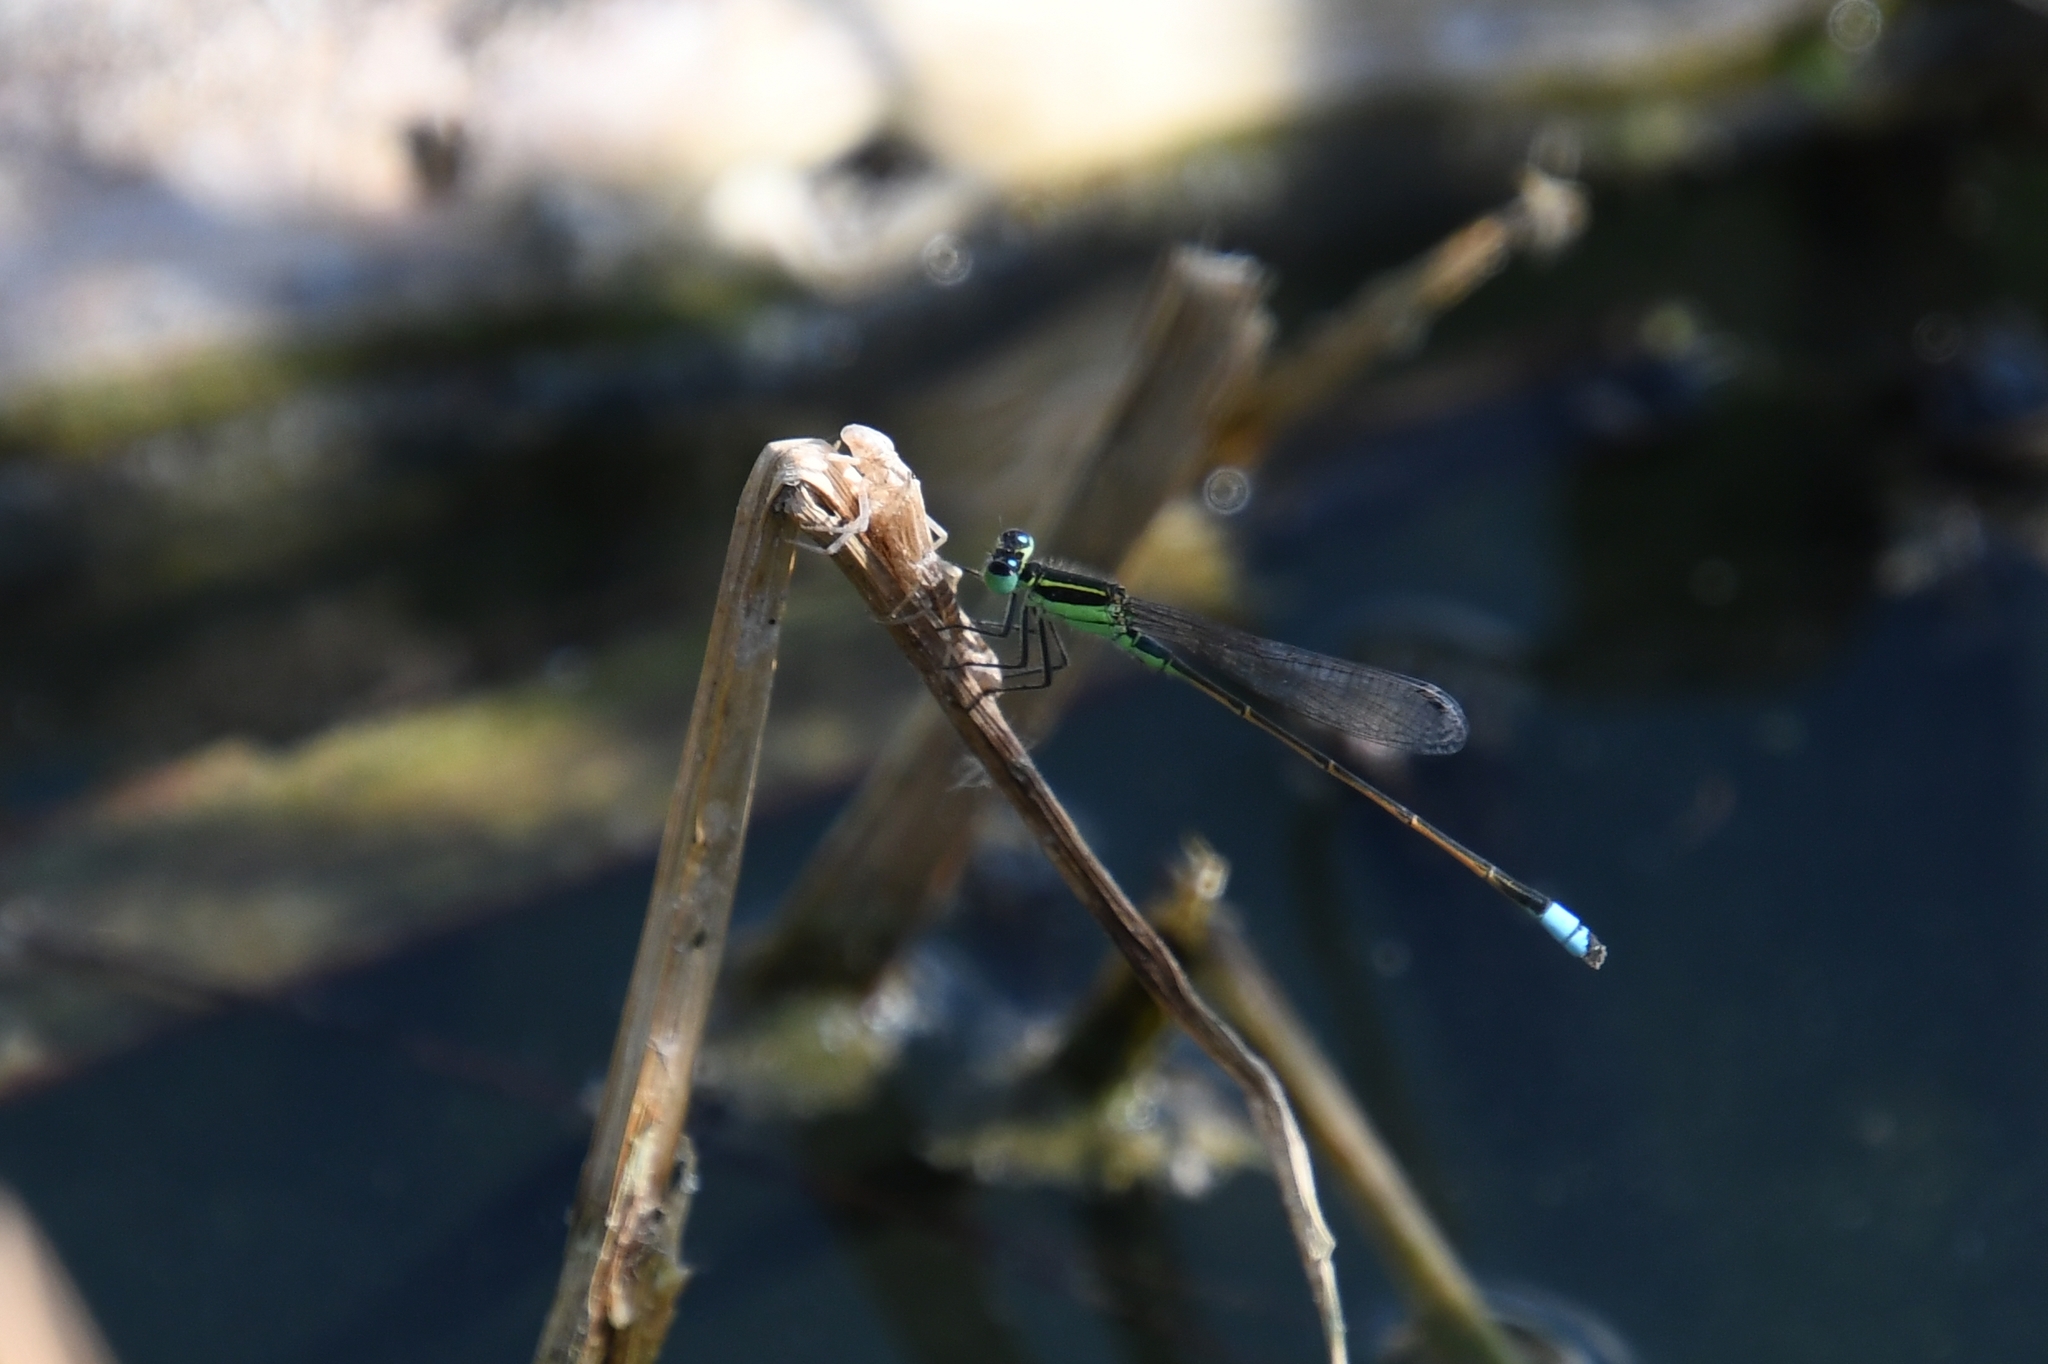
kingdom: Animalia
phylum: Arthropoda
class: Insecta
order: Odonata
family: Coenagrionidae
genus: Ischnura
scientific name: Ischnura ramburii
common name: Rambur's forktail
